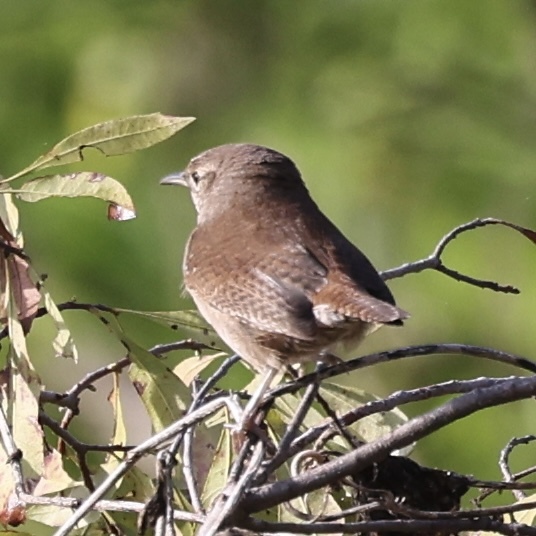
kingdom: Animalia
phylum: Chordata
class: Aves
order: Passeriformes
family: Troglodytidae
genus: Troglodytes
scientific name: Troglodytes aedon
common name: House wren
